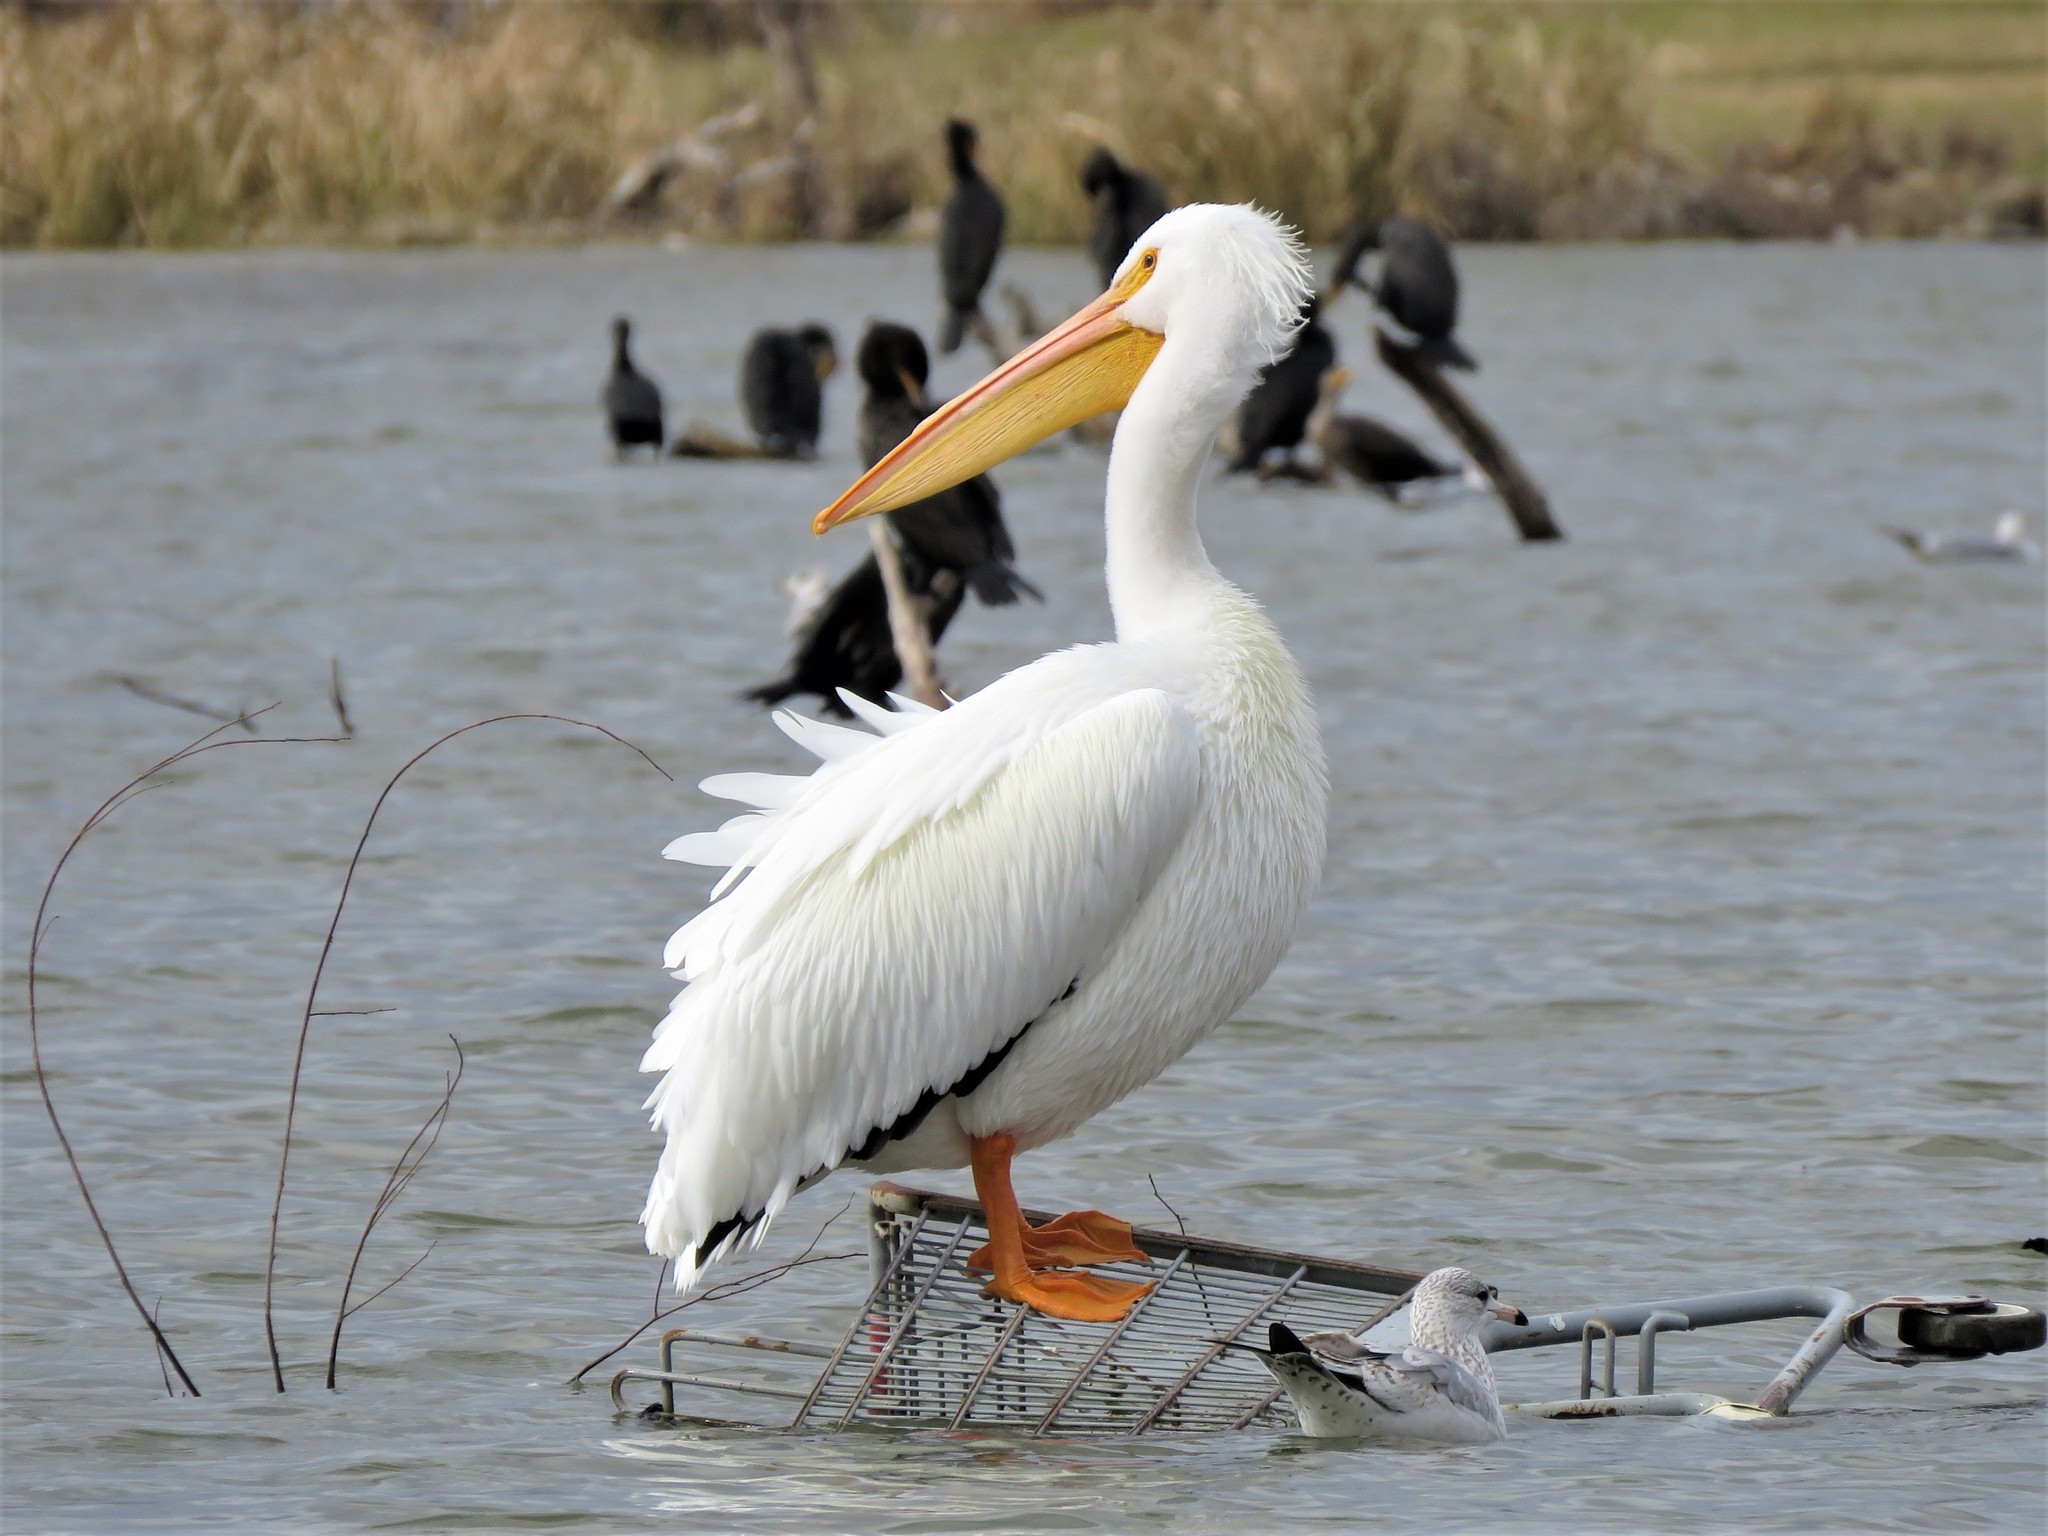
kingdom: Animalia
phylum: Chordata
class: Aves
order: Pelecaniformes
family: Pelecanidae
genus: Pelecanus
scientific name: Pelecanus erythrorhynchos
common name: American white pelican
